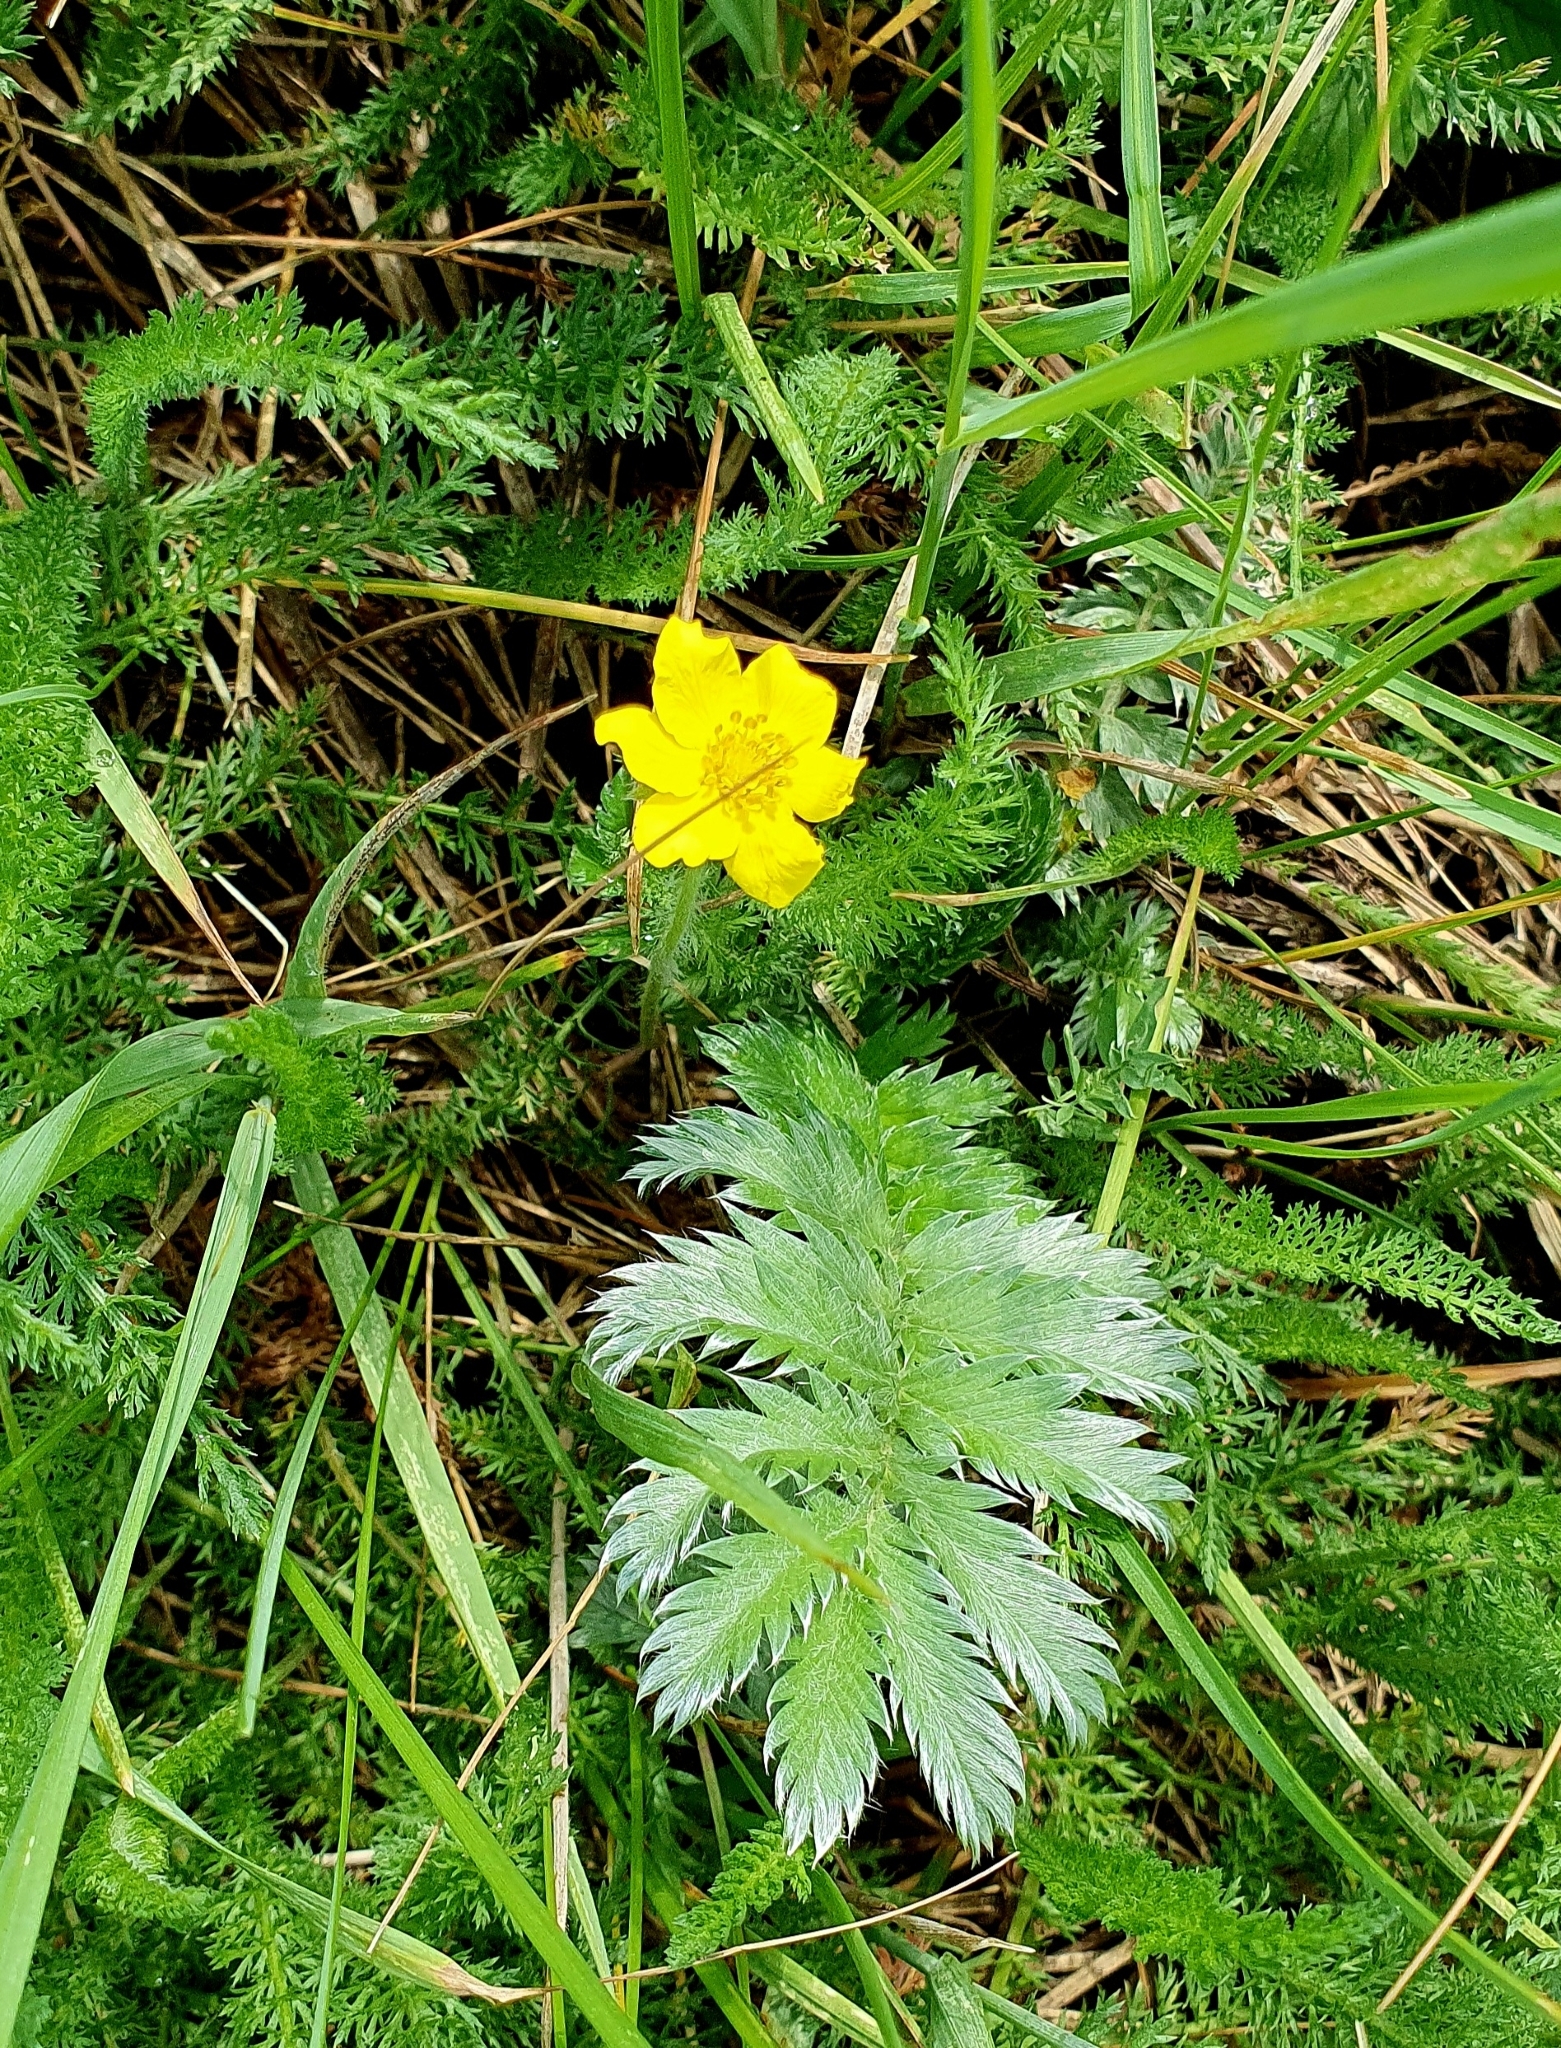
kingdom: Plantae
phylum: Tracheophyta
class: Magnoliopsida
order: Rosales
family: Rosaceae
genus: Argentina
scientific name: Argentina anserina
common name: Common silverweed
